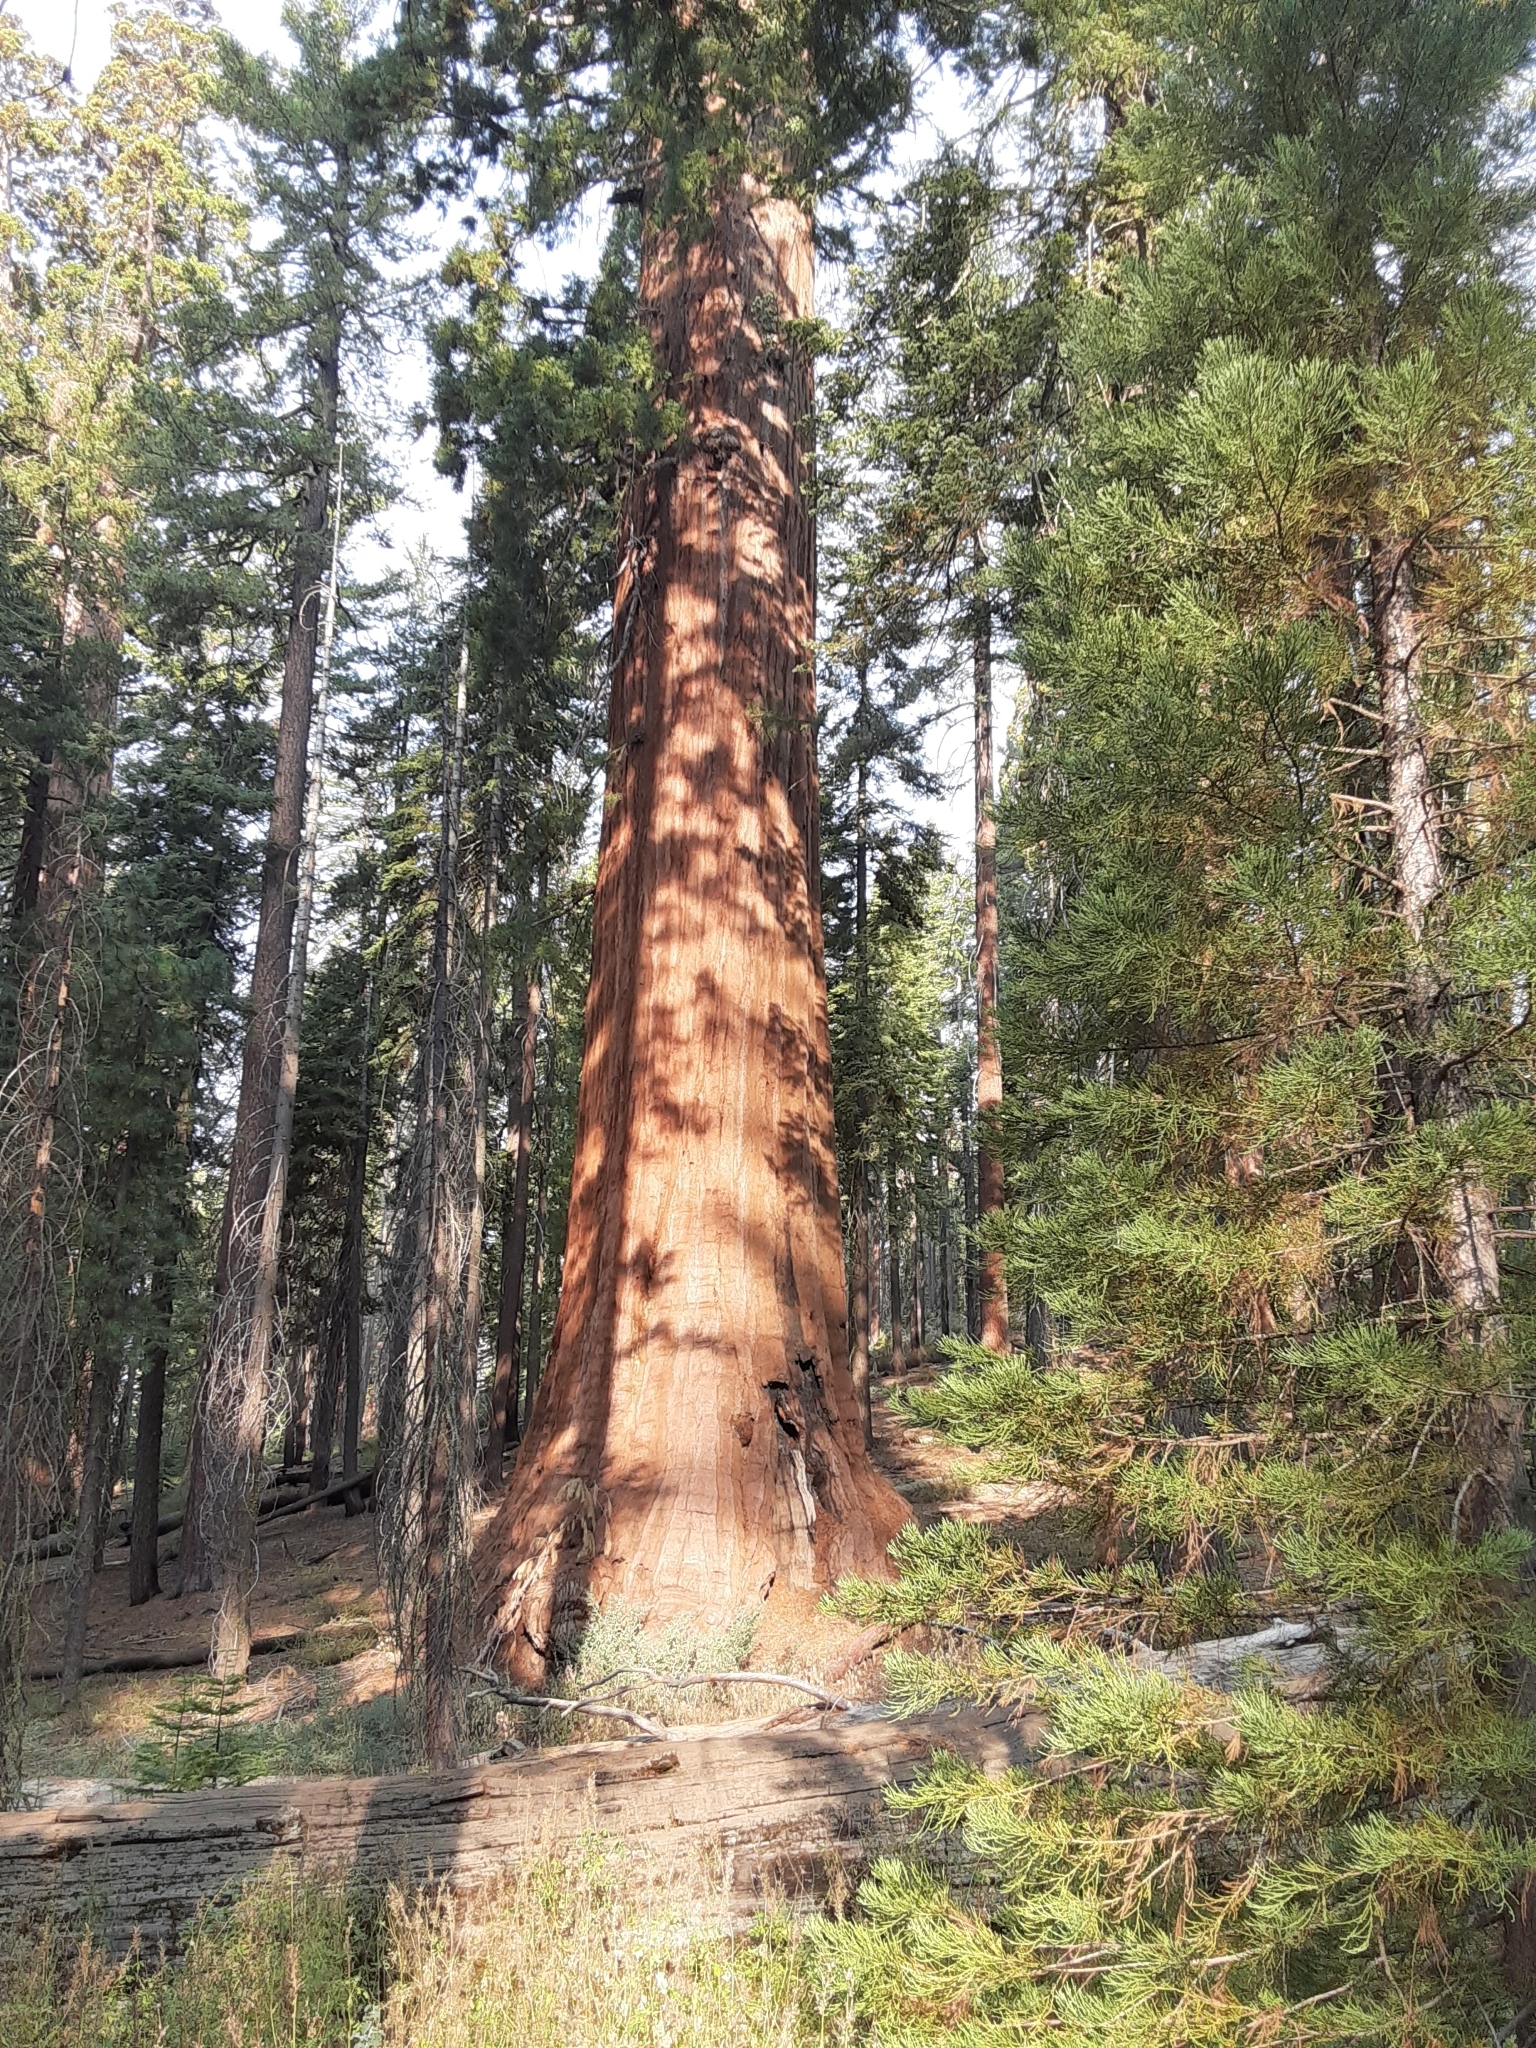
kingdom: Plantae
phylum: Tracheophyta
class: Pinopsida
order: Pinales
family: Cupressaceae
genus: Sequoiadendron
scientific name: Sequoiadendron giganteum
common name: Wellingtonia
